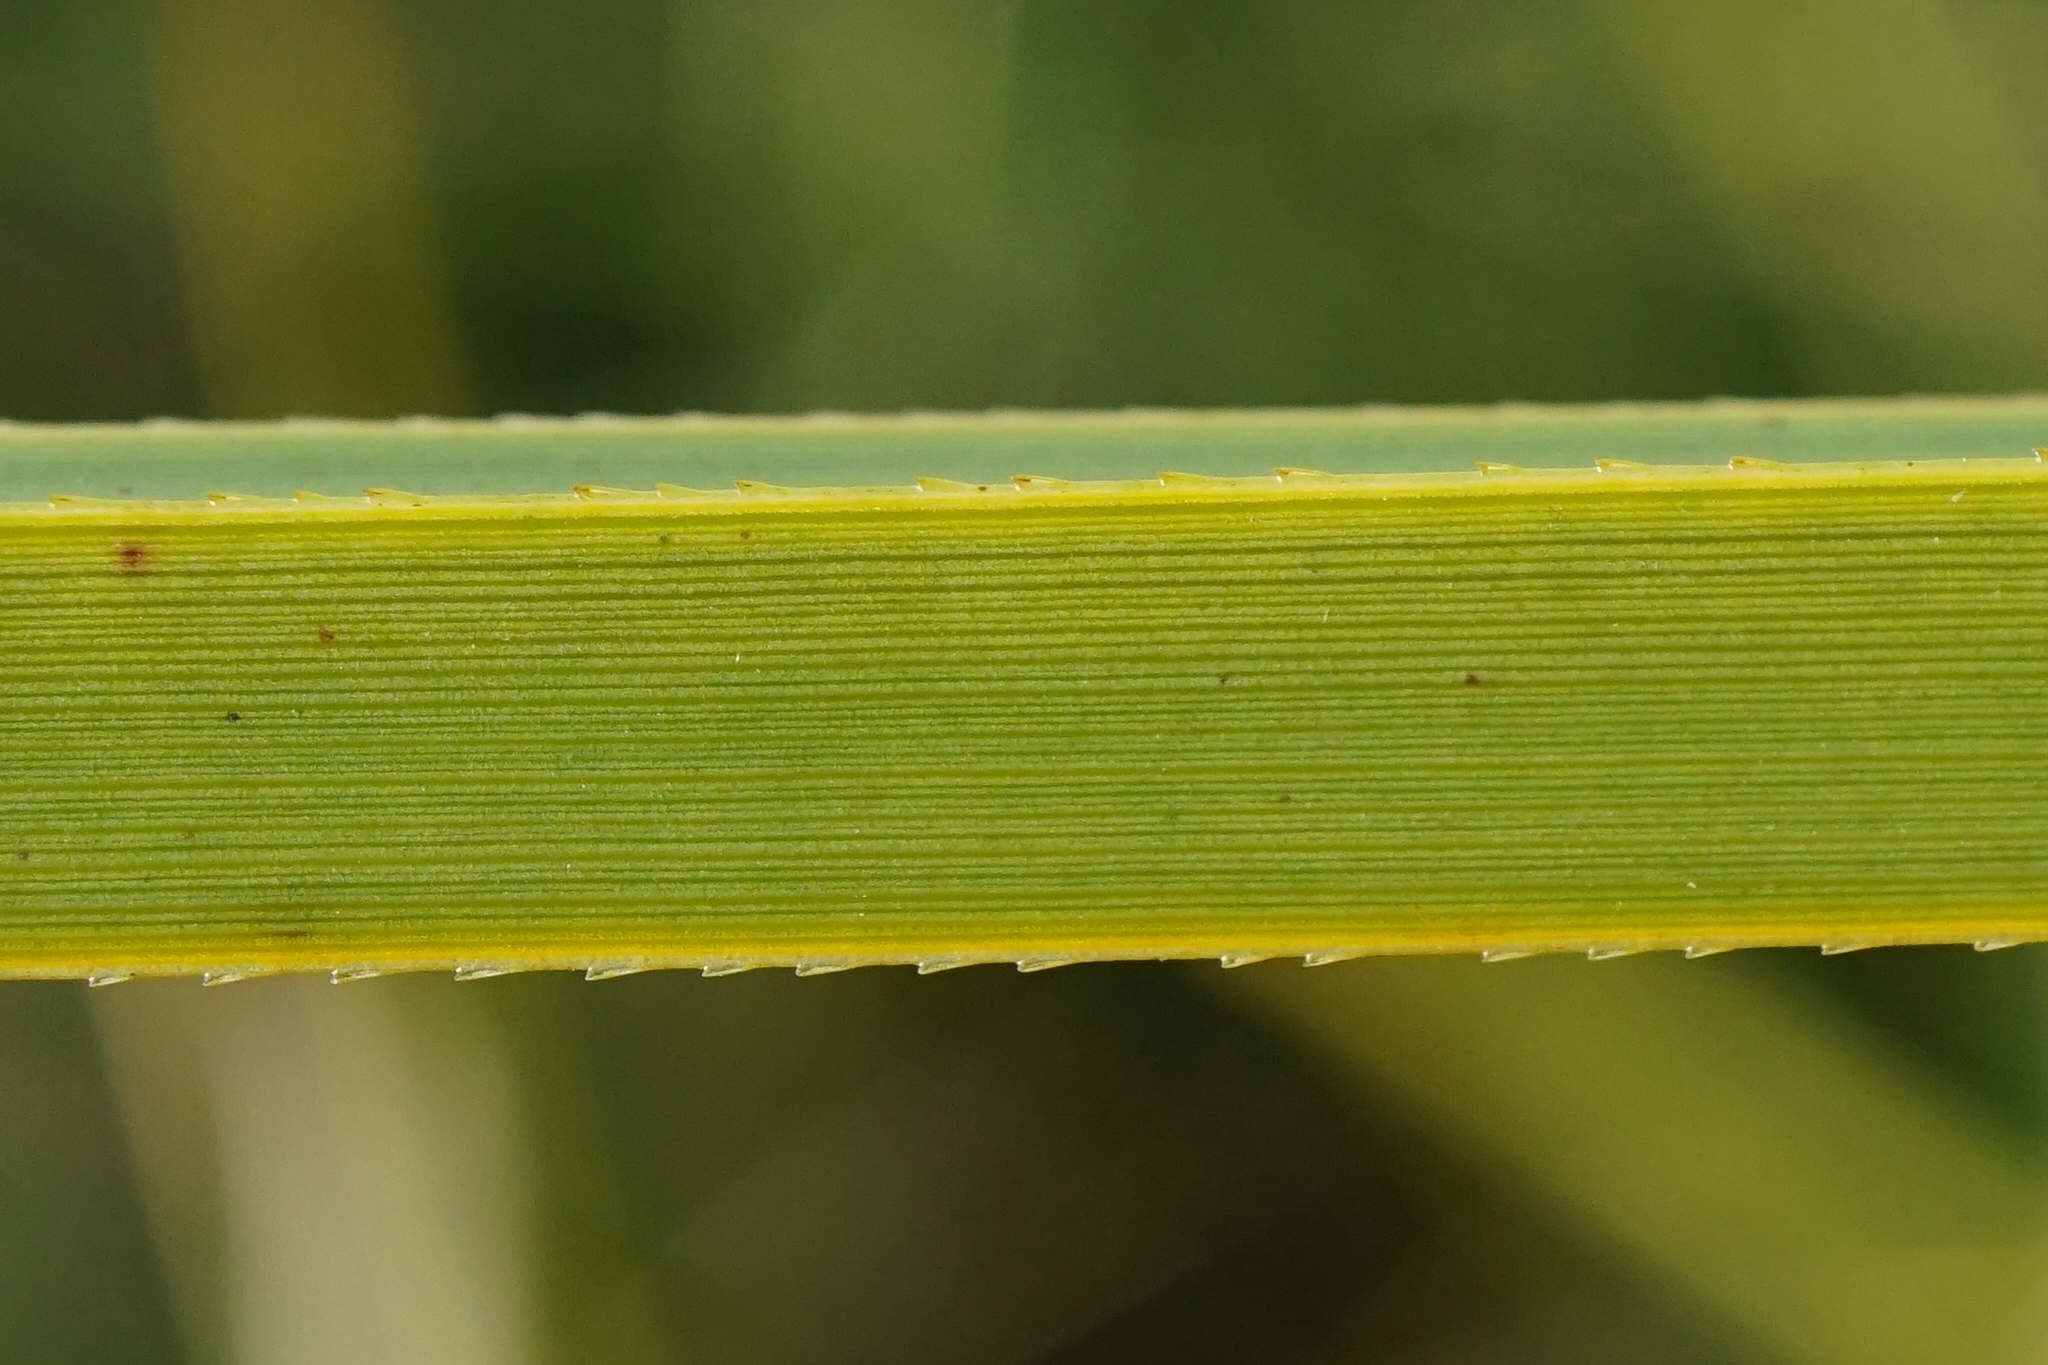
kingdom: Plantae
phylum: Tracheophyta
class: Liliopsida
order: Poales
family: Cyperaceae
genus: Cladium
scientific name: Cladium mariscus
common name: Great fen-sedge
